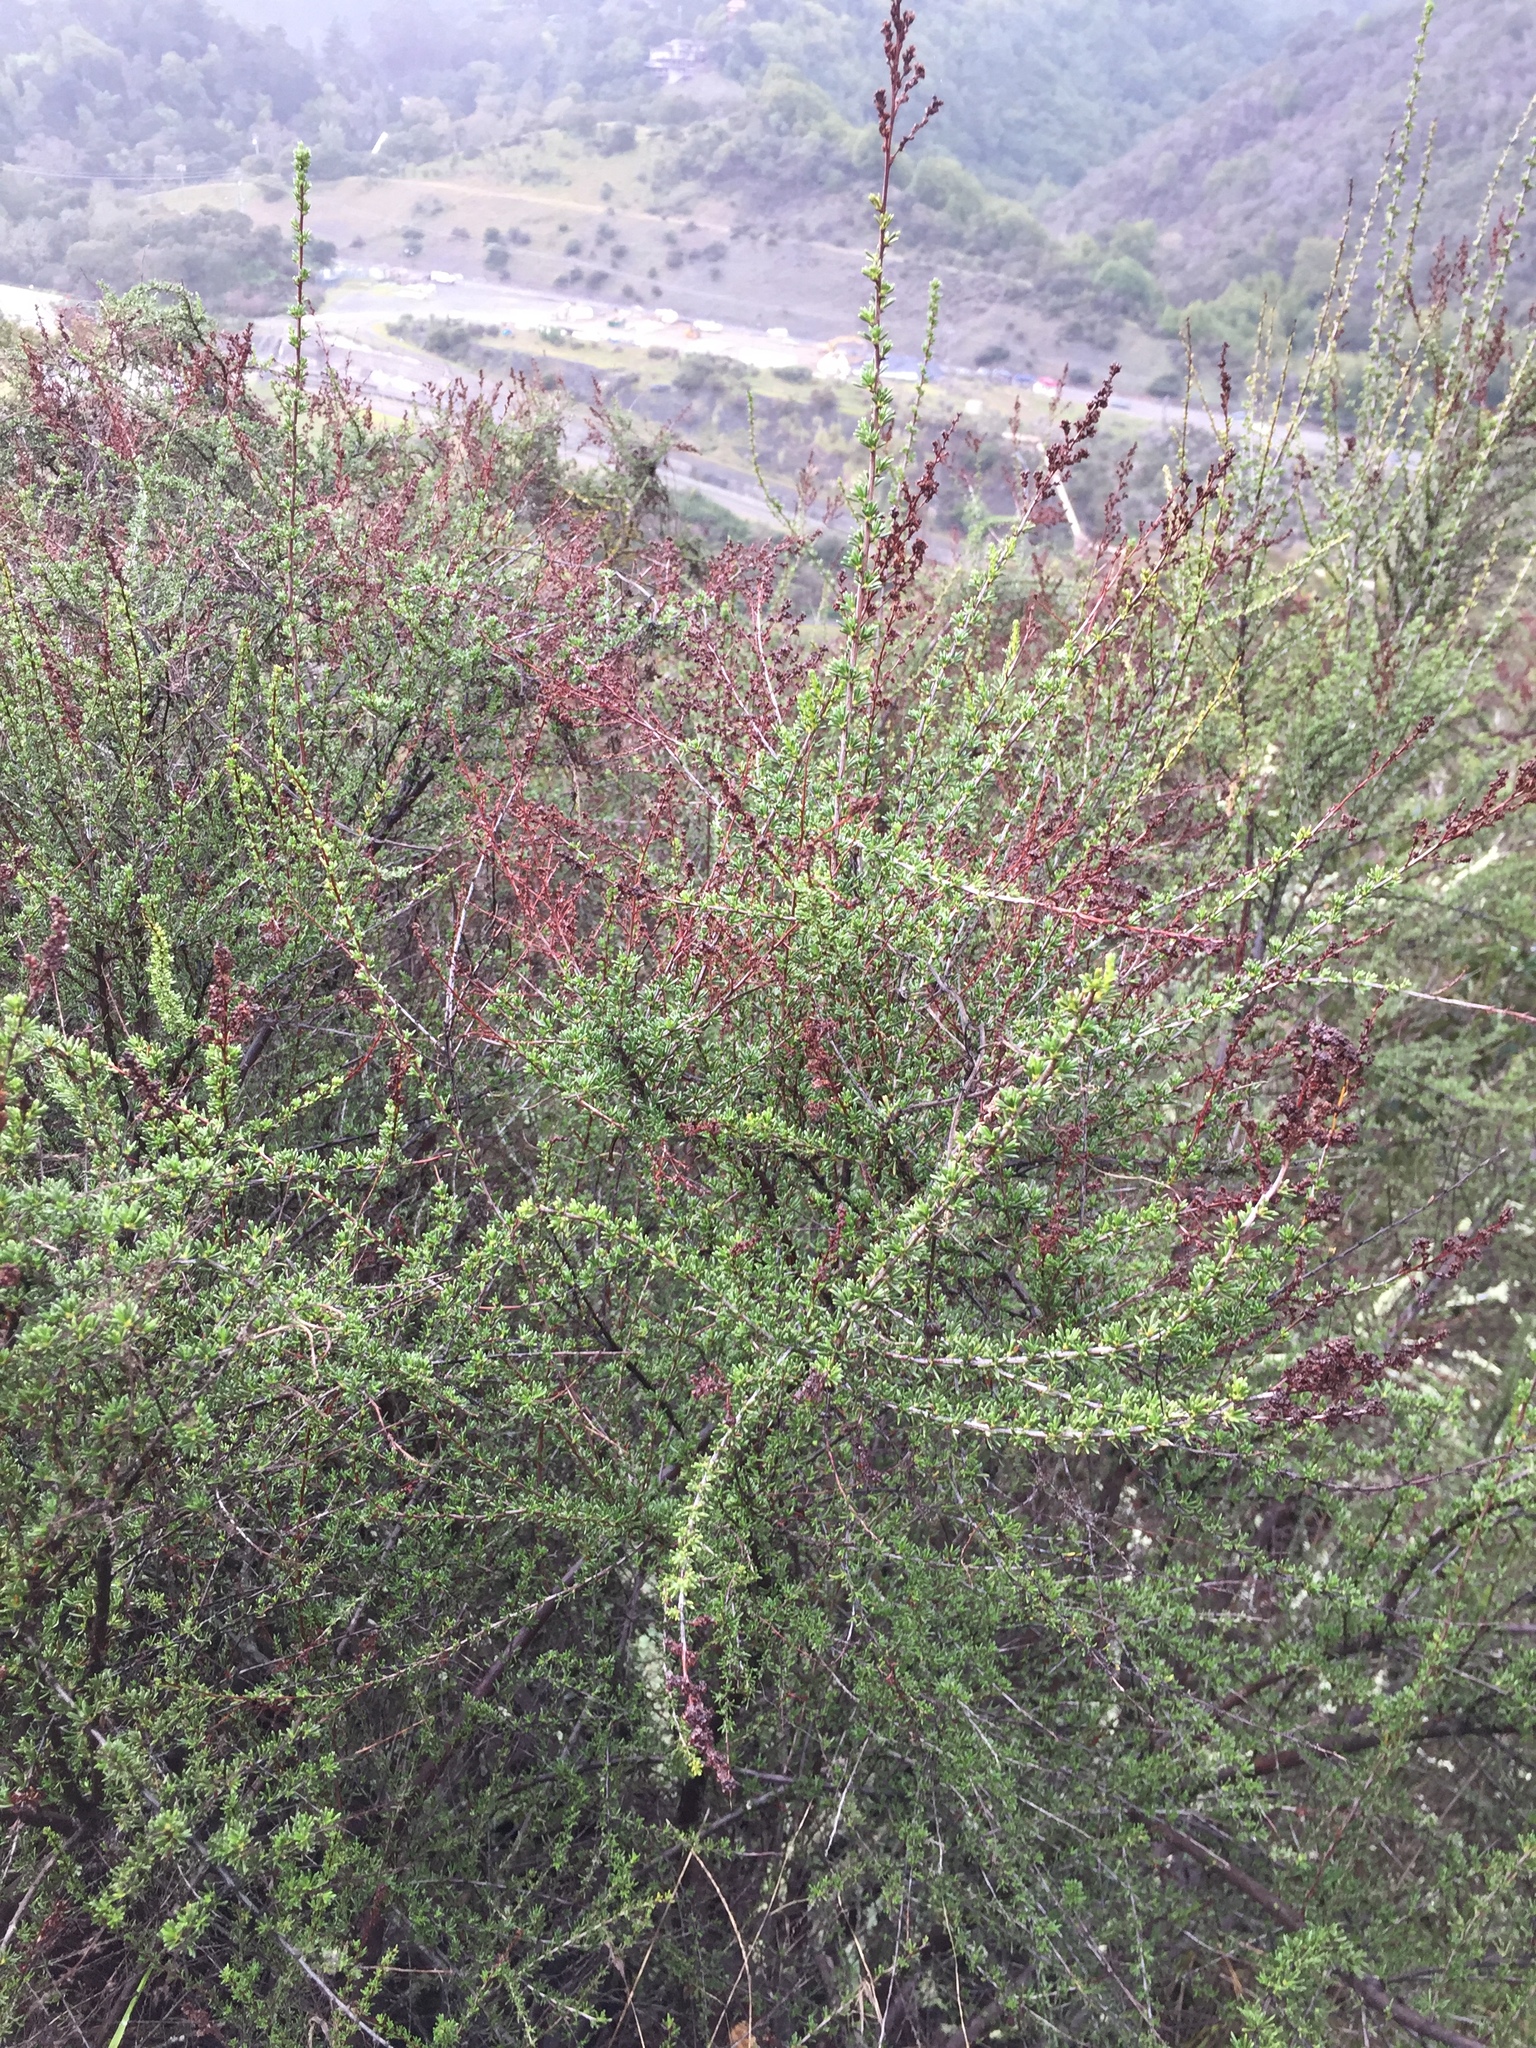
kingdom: Plantae
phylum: Tracheophyta
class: Magnoliopsida
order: Rosales
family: Rosaceae
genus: Adenostoma
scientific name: Adenostoma fasciculatum
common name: Chamise
